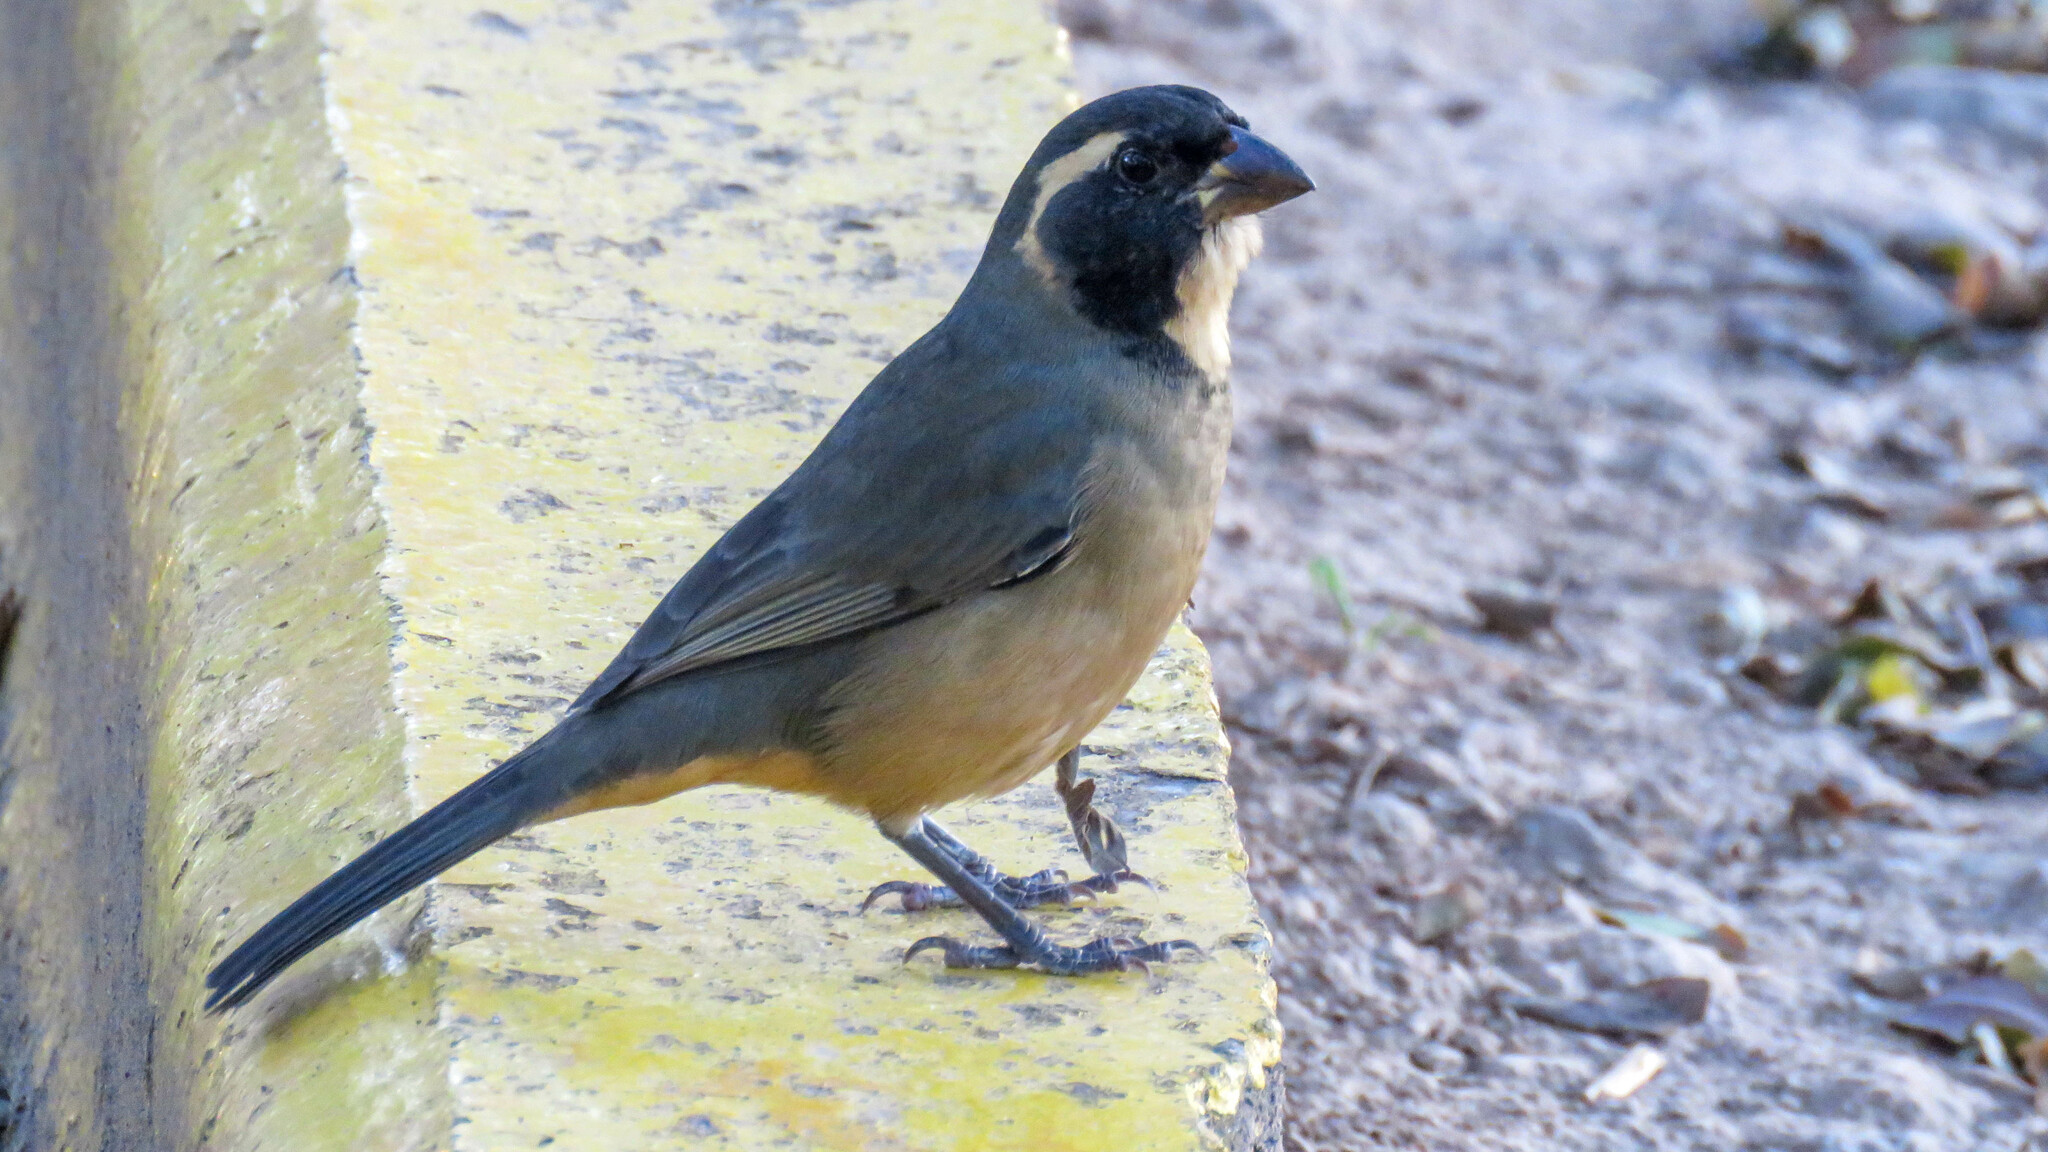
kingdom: Animalia
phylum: Chordata
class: Aves
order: Passeriformes
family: Thraupidae
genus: Saltator
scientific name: Saltator aurantiirostris
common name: Golden-billed saltator
